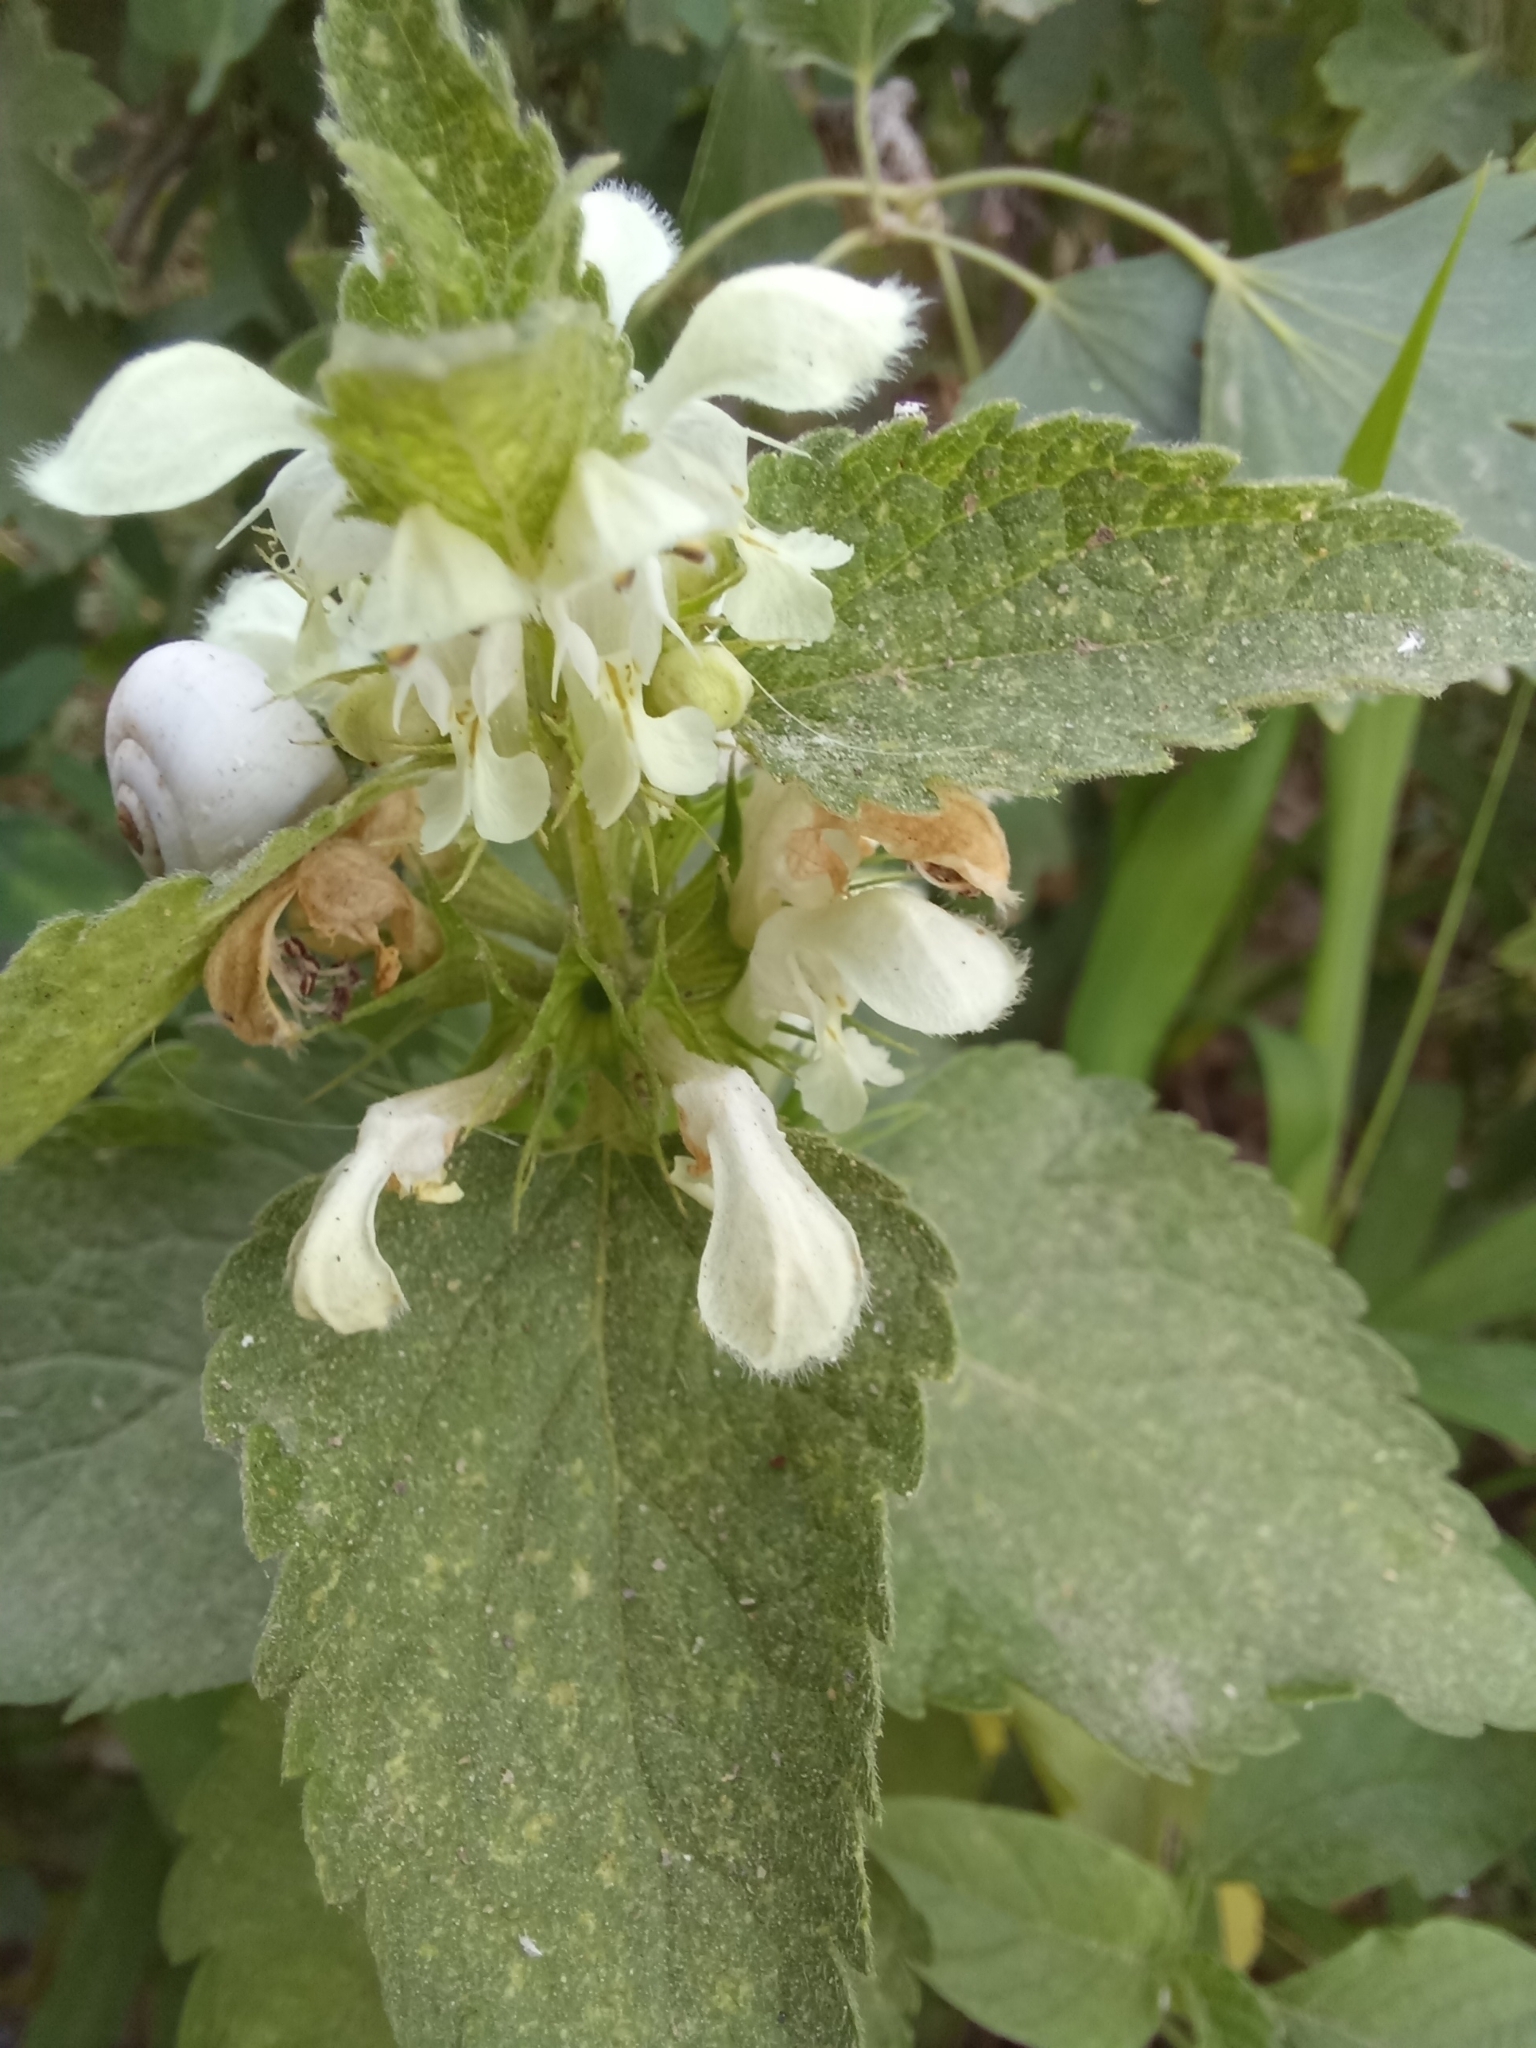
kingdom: Plantae
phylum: Tracheophyta
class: Magnoliopsida
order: Lamiales
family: Lamiaceae
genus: Lamium
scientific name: Lamium album
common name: White dead-nettle
